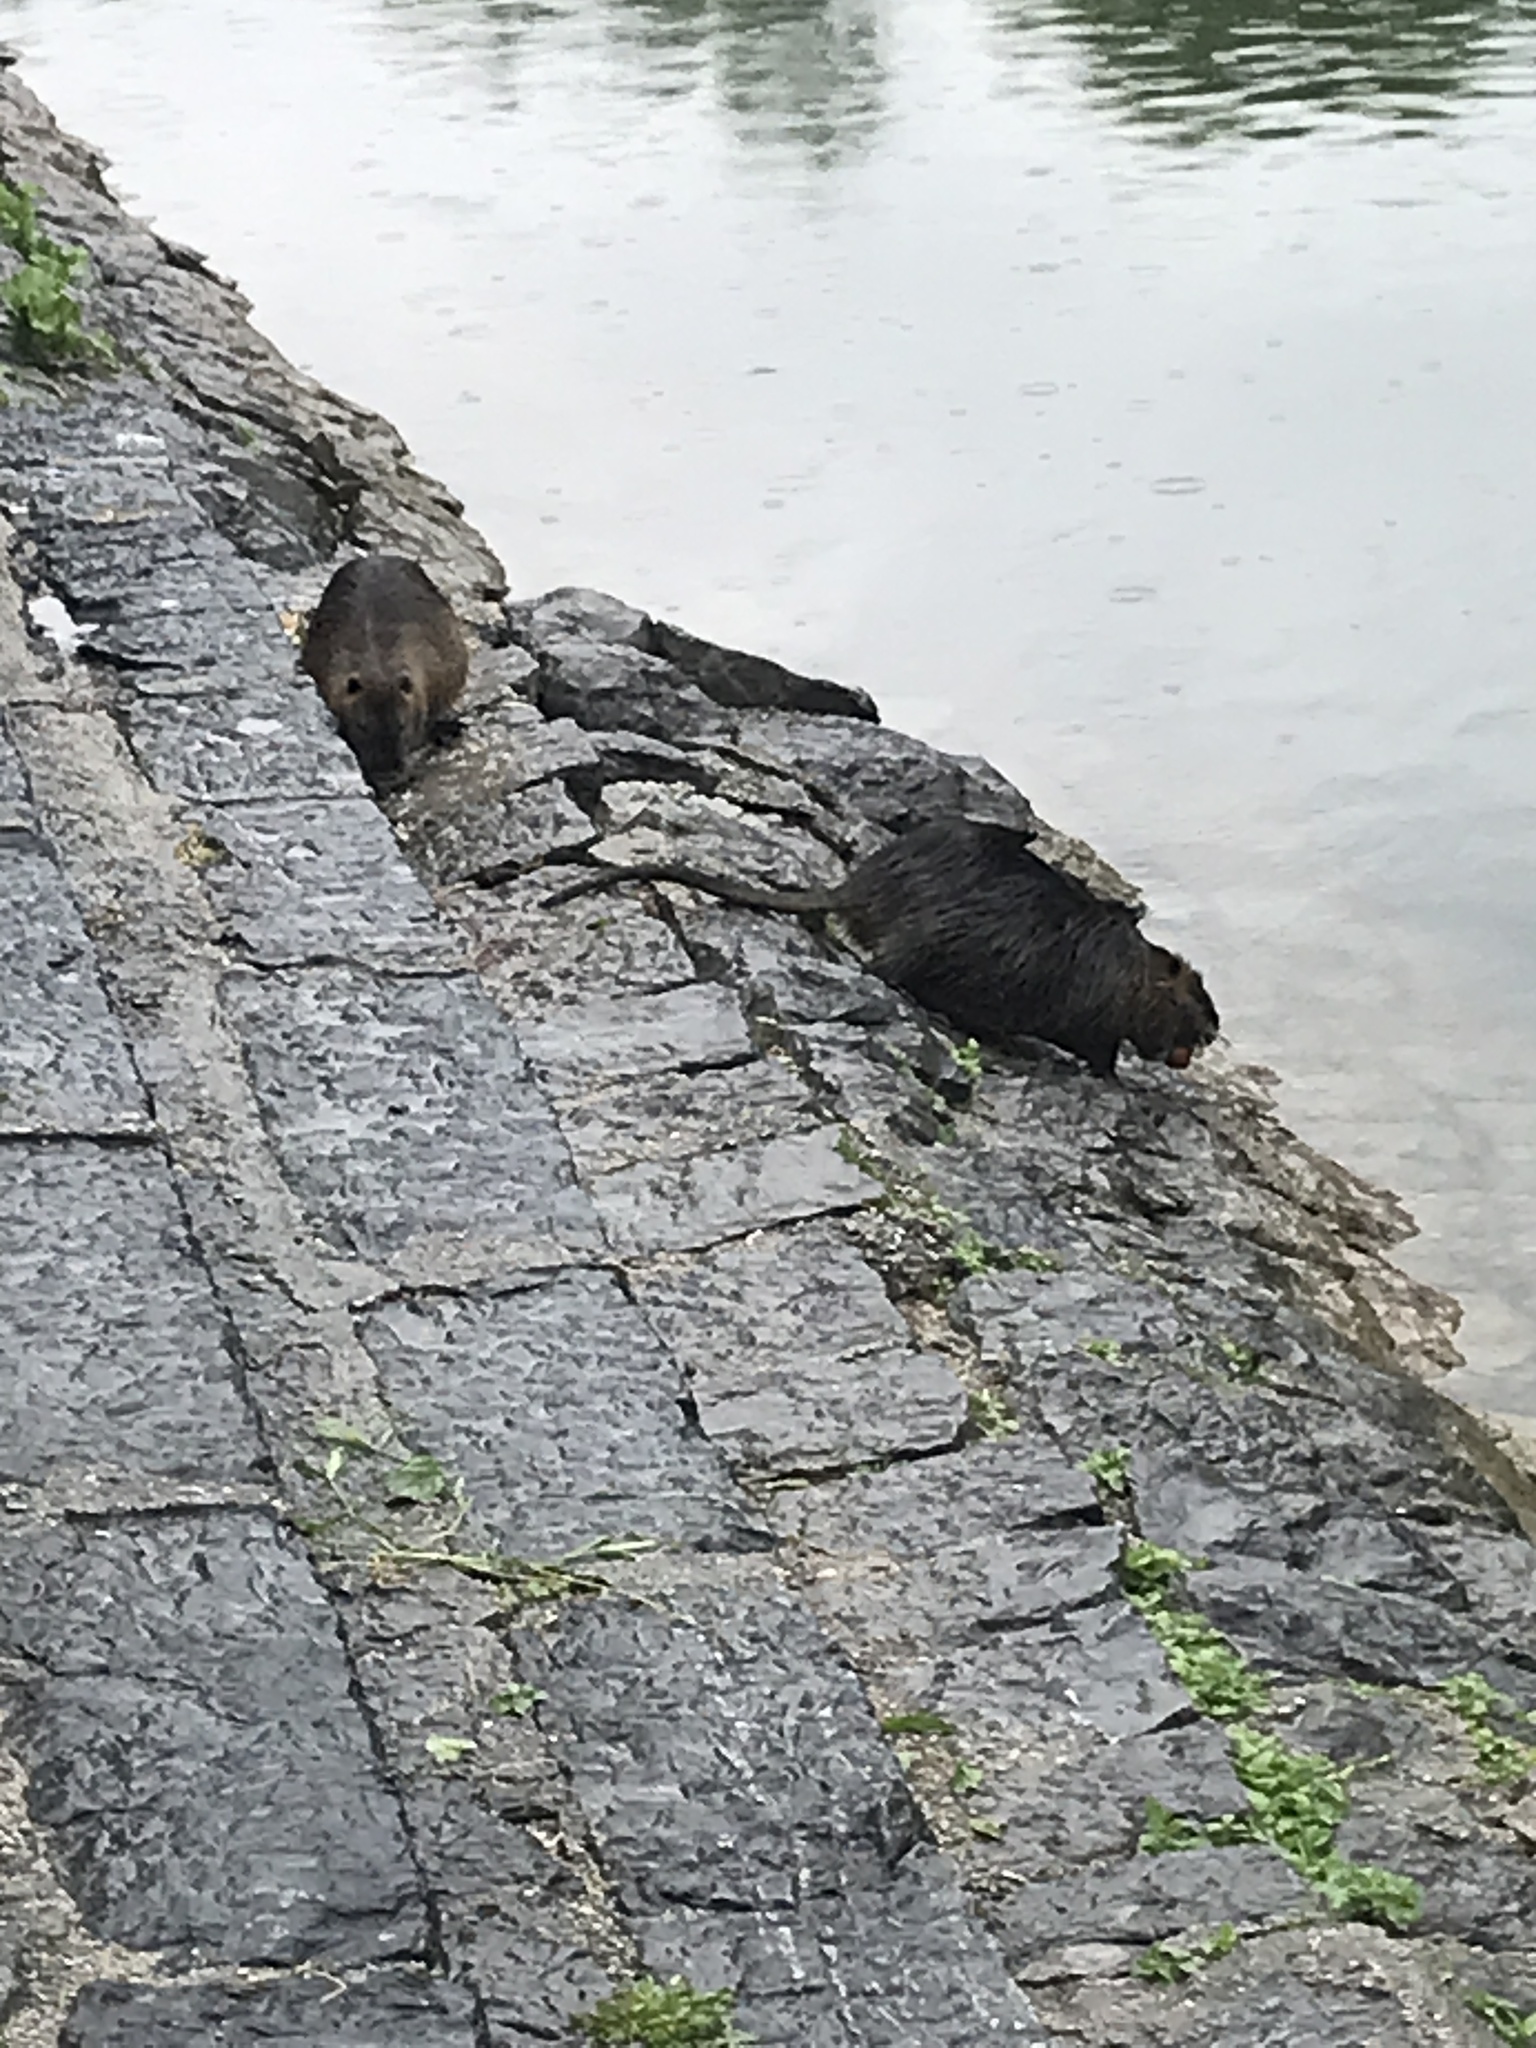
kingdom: Animalia
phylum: Chordata
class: Mammalia
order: Rodentia
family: Myocastoridae
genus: Myocastor
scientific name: Myocastor coypus
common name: Coypu
